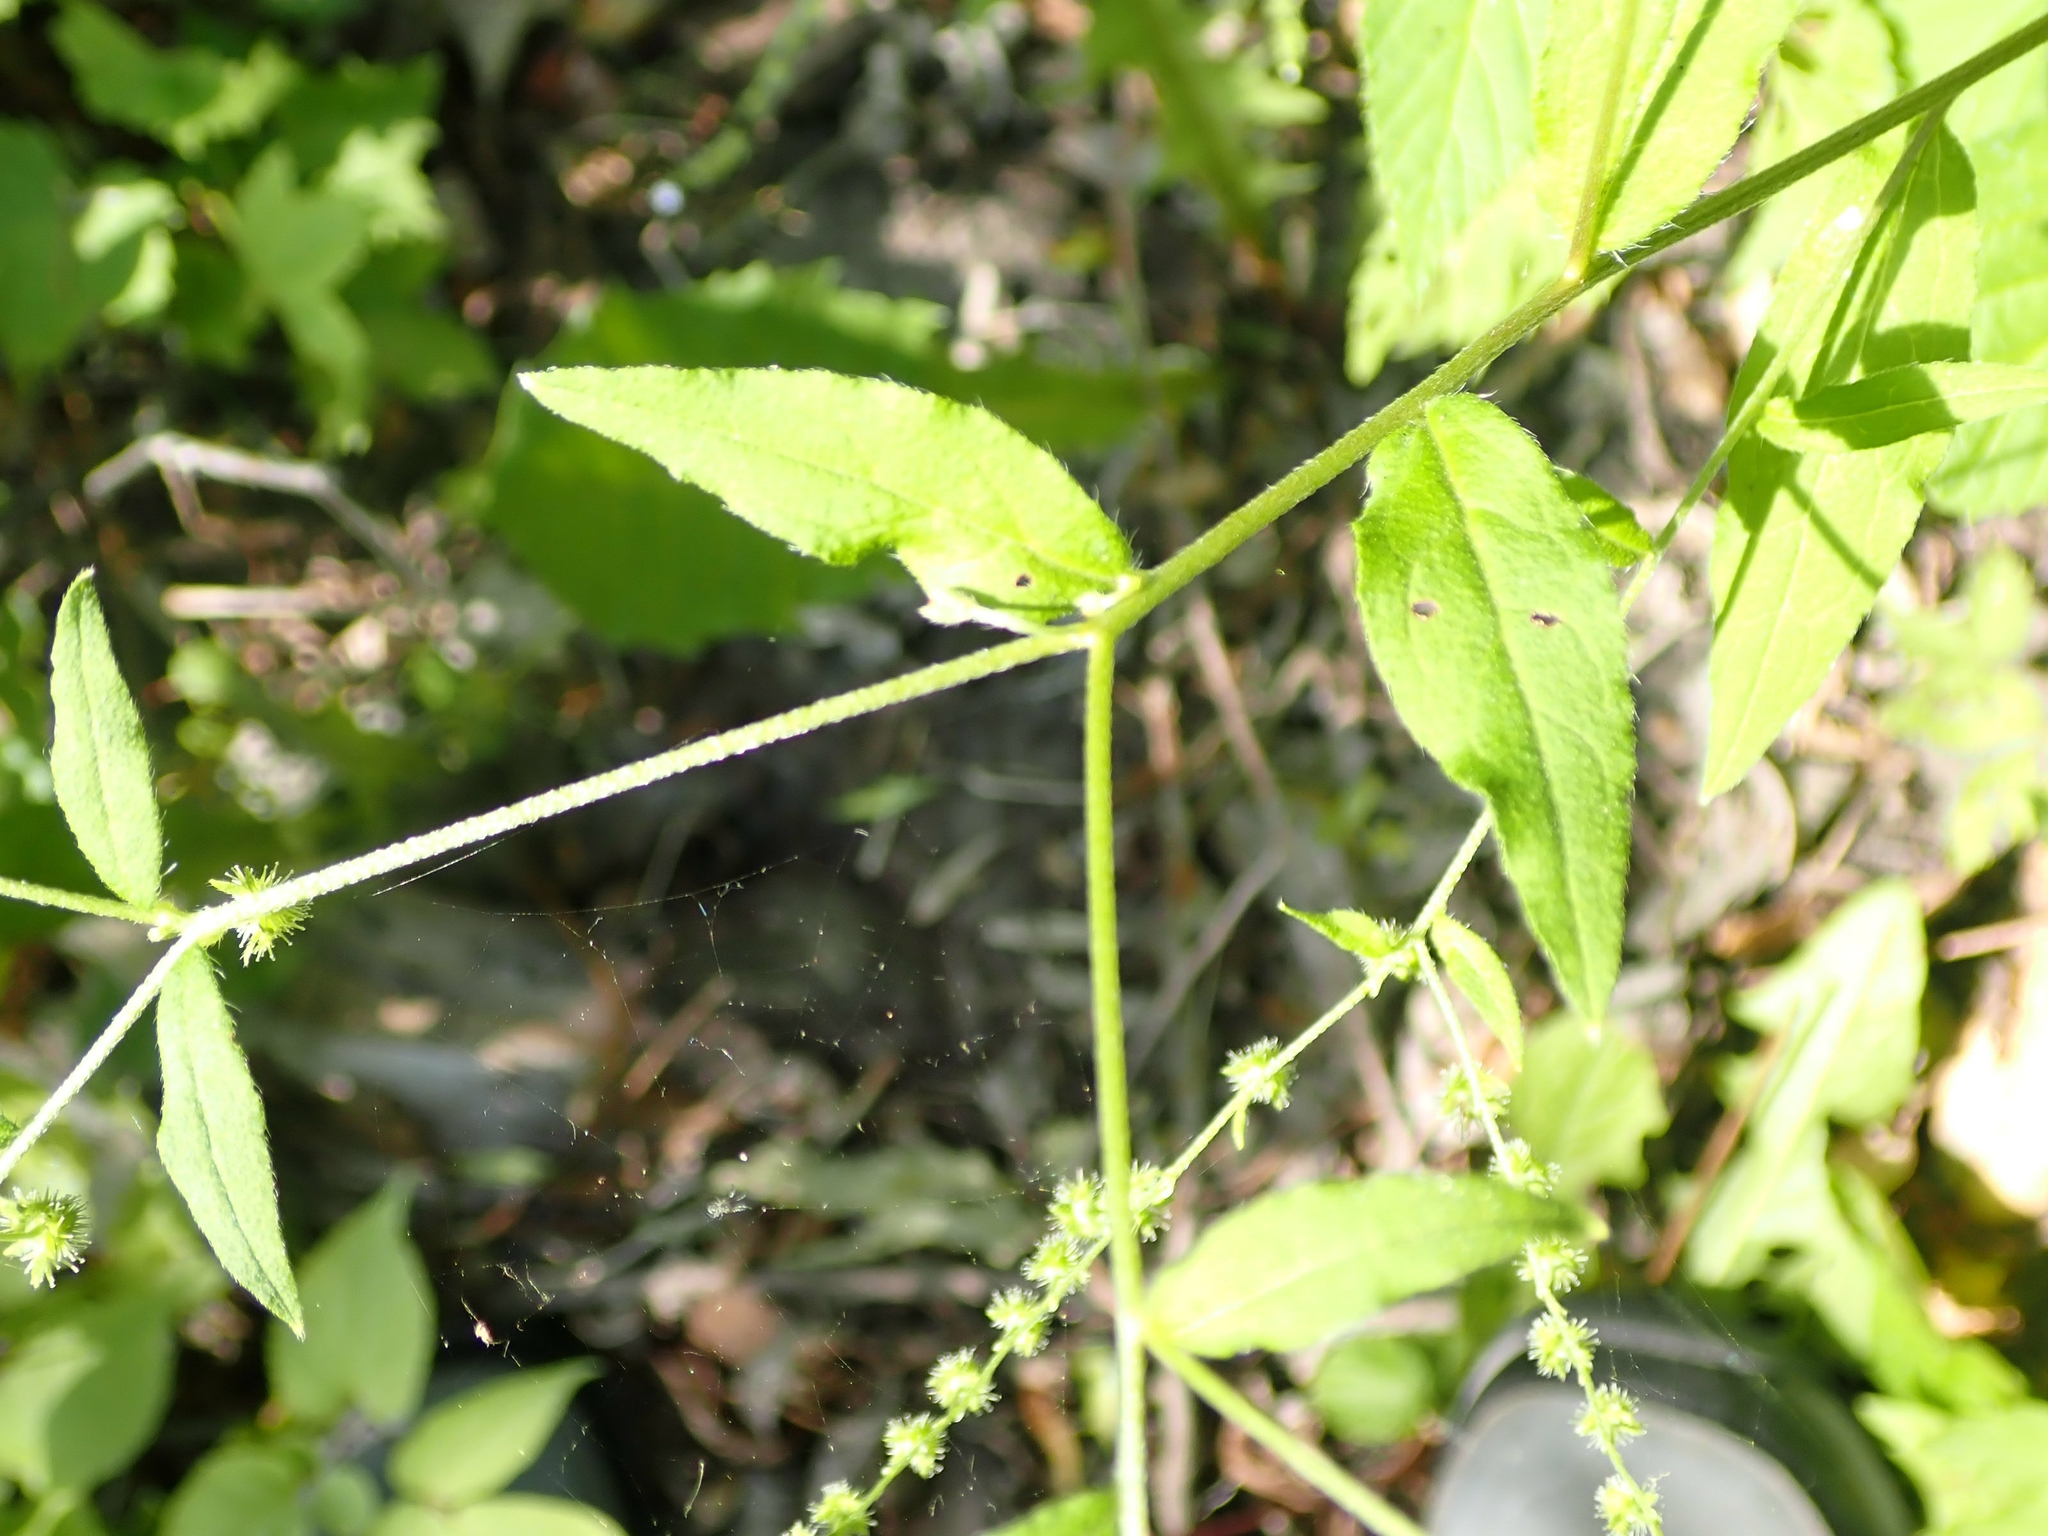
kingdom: Plantae
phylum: Tracheophyta
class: Magnoliopsida
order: Boraginales
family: Boraginaceae
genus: Hackelia
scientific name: Hackelia deflexa
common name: Nodding stickseed
